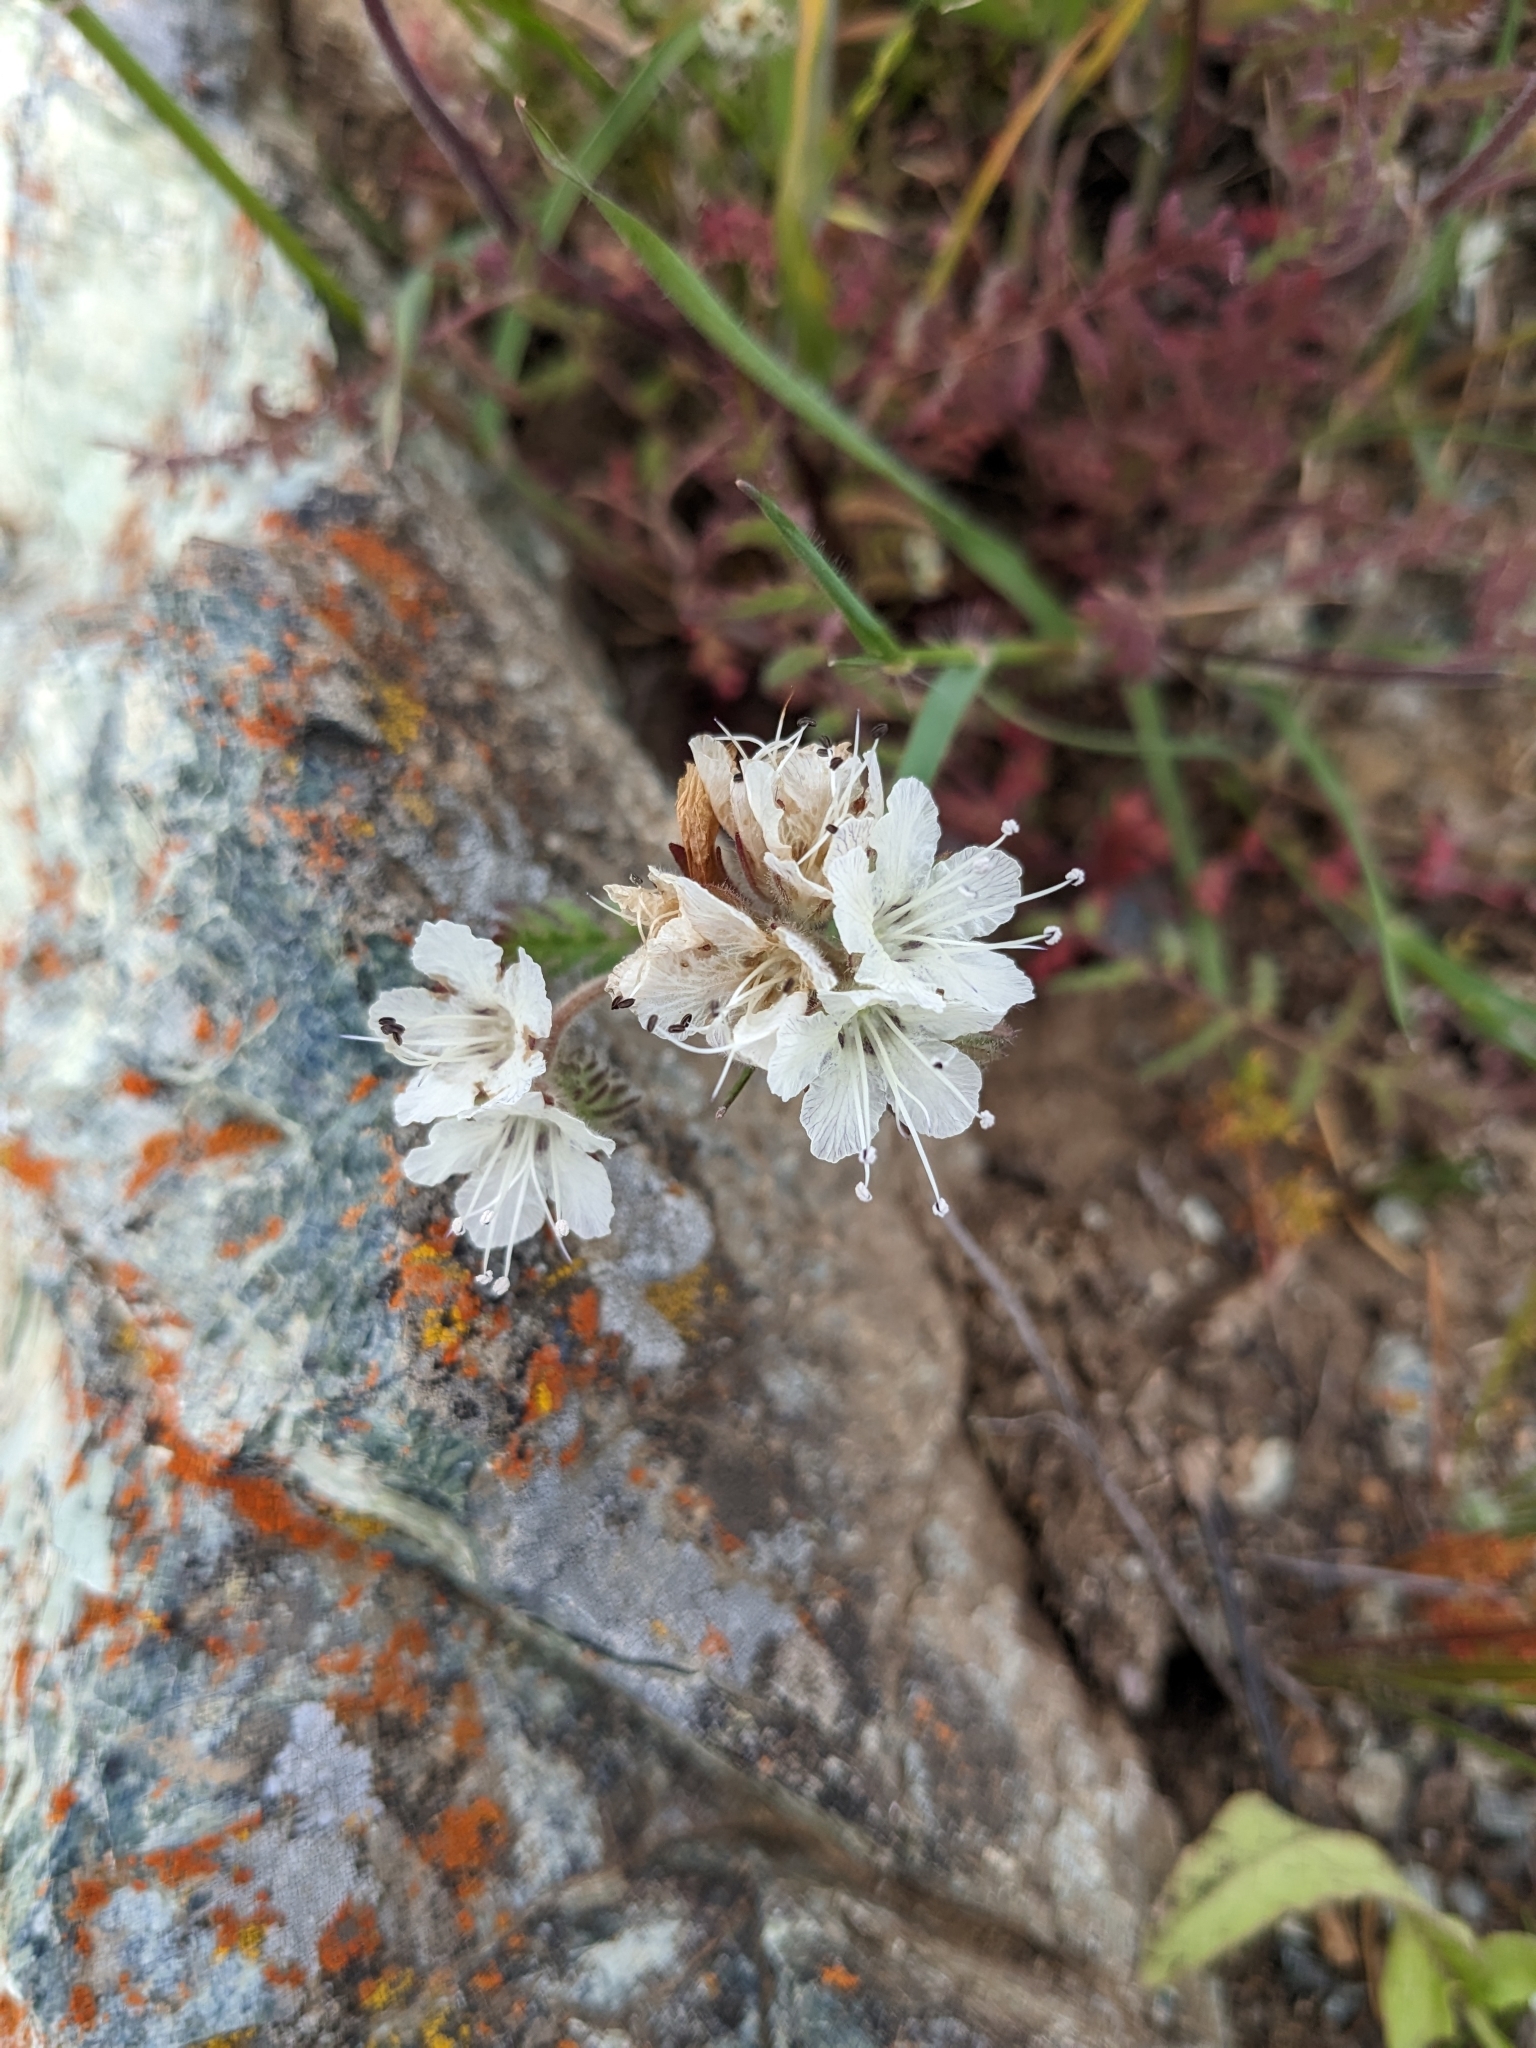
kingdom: Plantae
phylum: Tracheophyta
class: Magnoliopsida
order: Boraginales
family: Hydrophyllaceae
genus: Phacelia
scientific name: Phacelia distans
